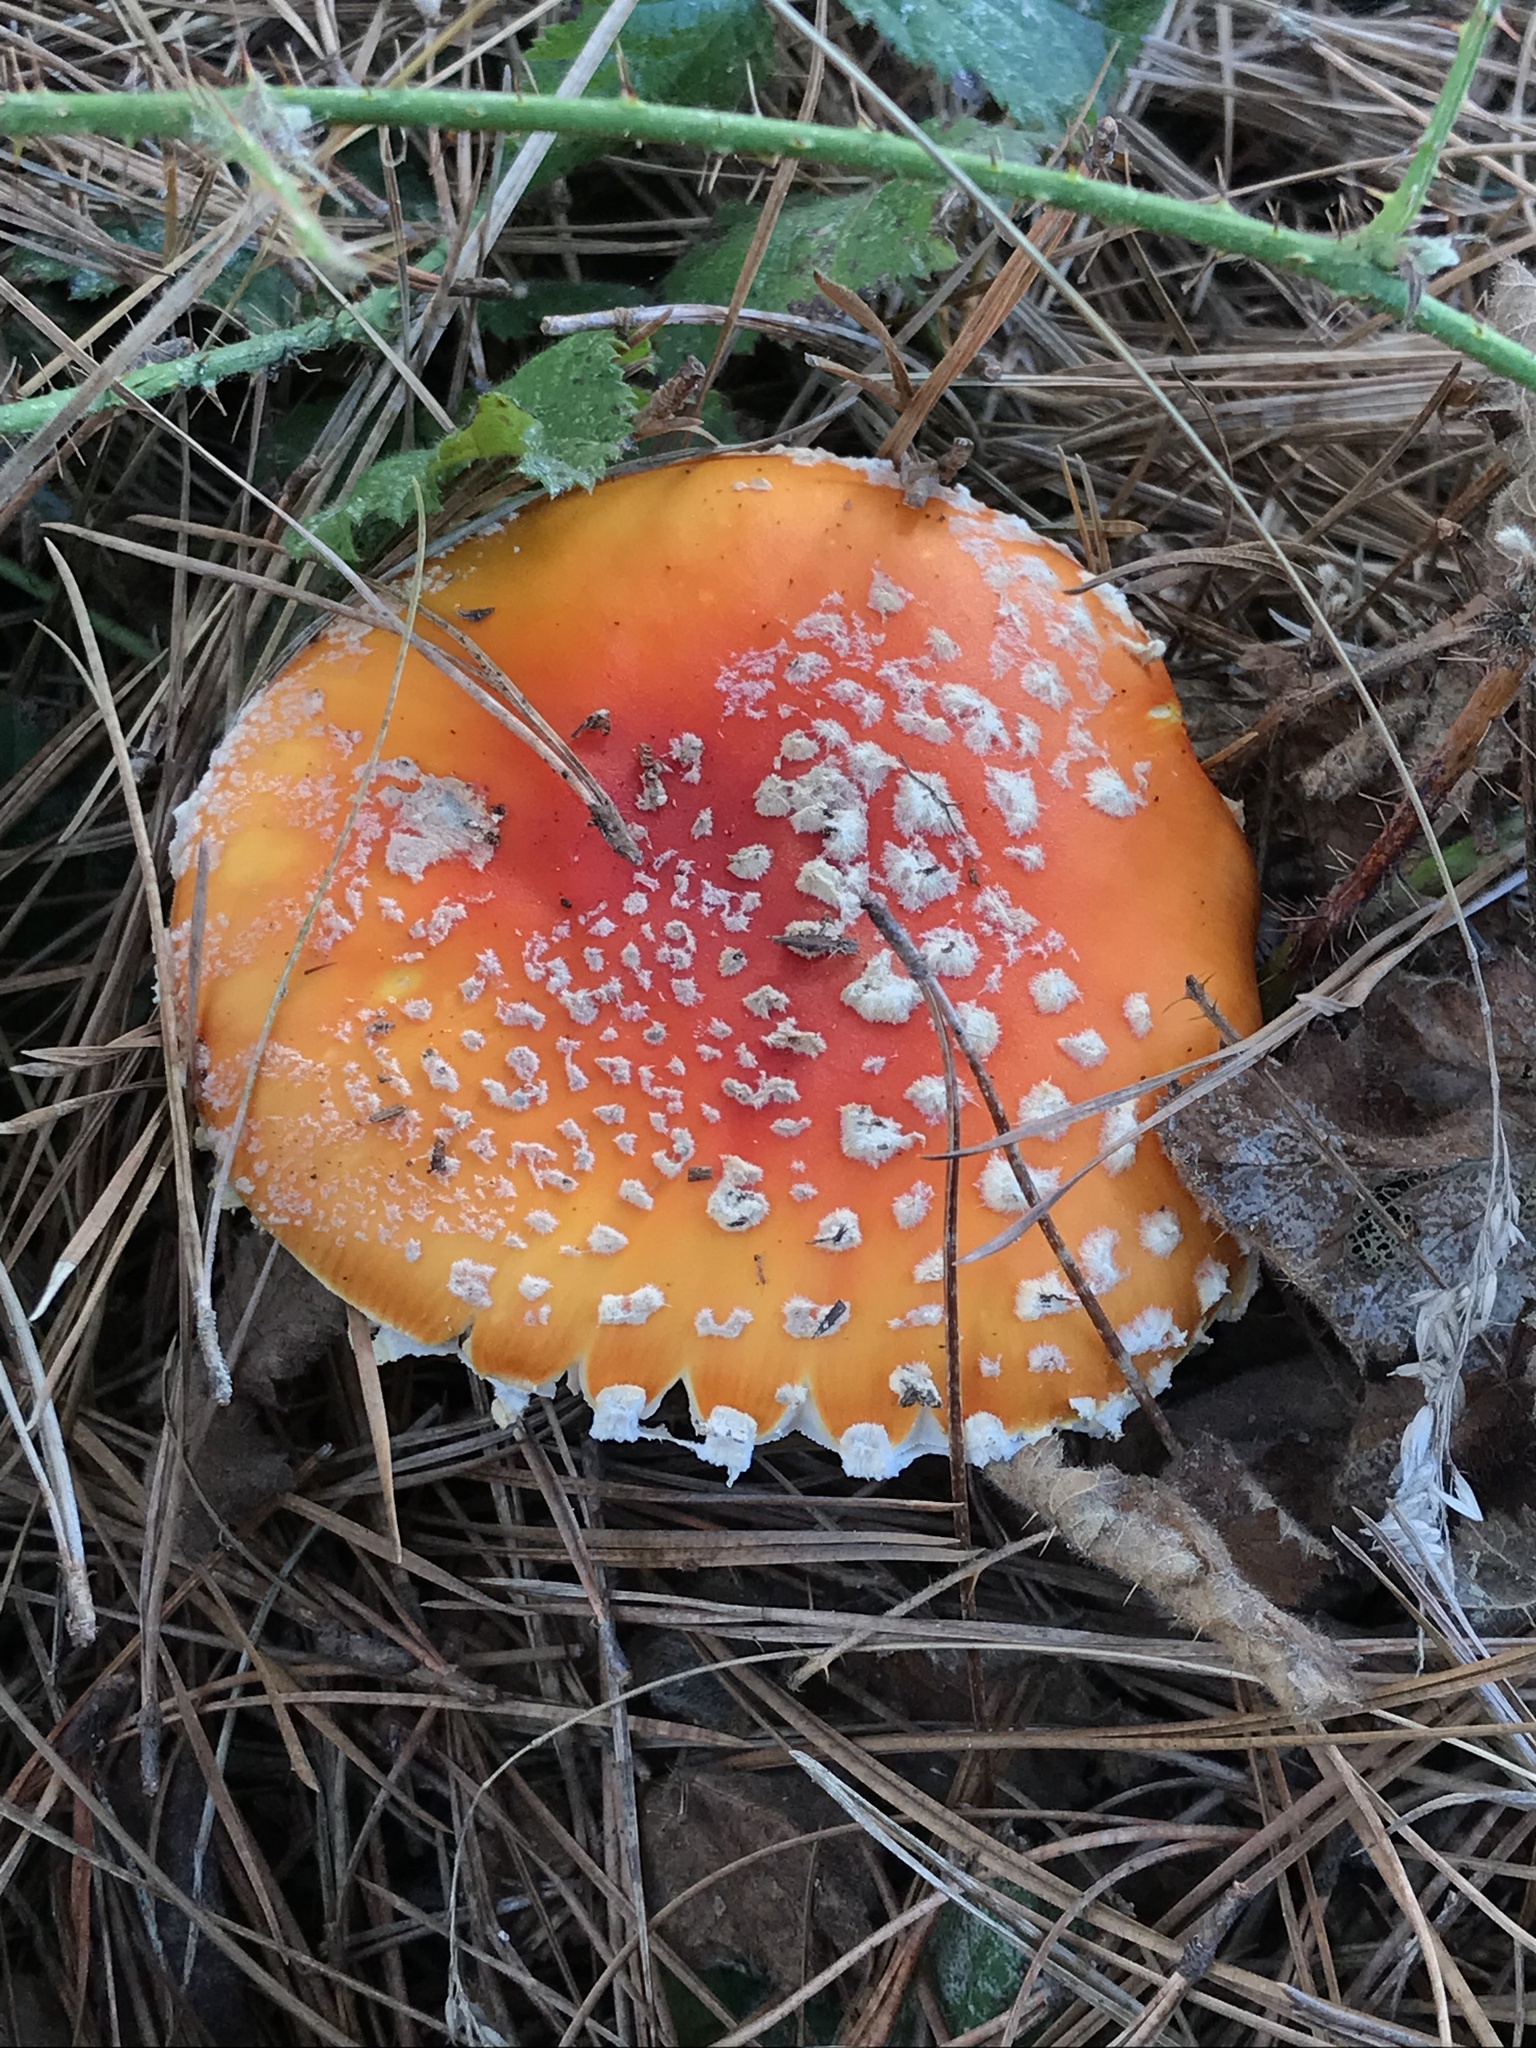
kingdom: Fungi
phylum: Basidiomycota
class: Agaricomycetes
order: Agaricales
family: Amanitaceae
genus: Amanita
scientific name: Amanita muscaria
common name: Fly agaric
